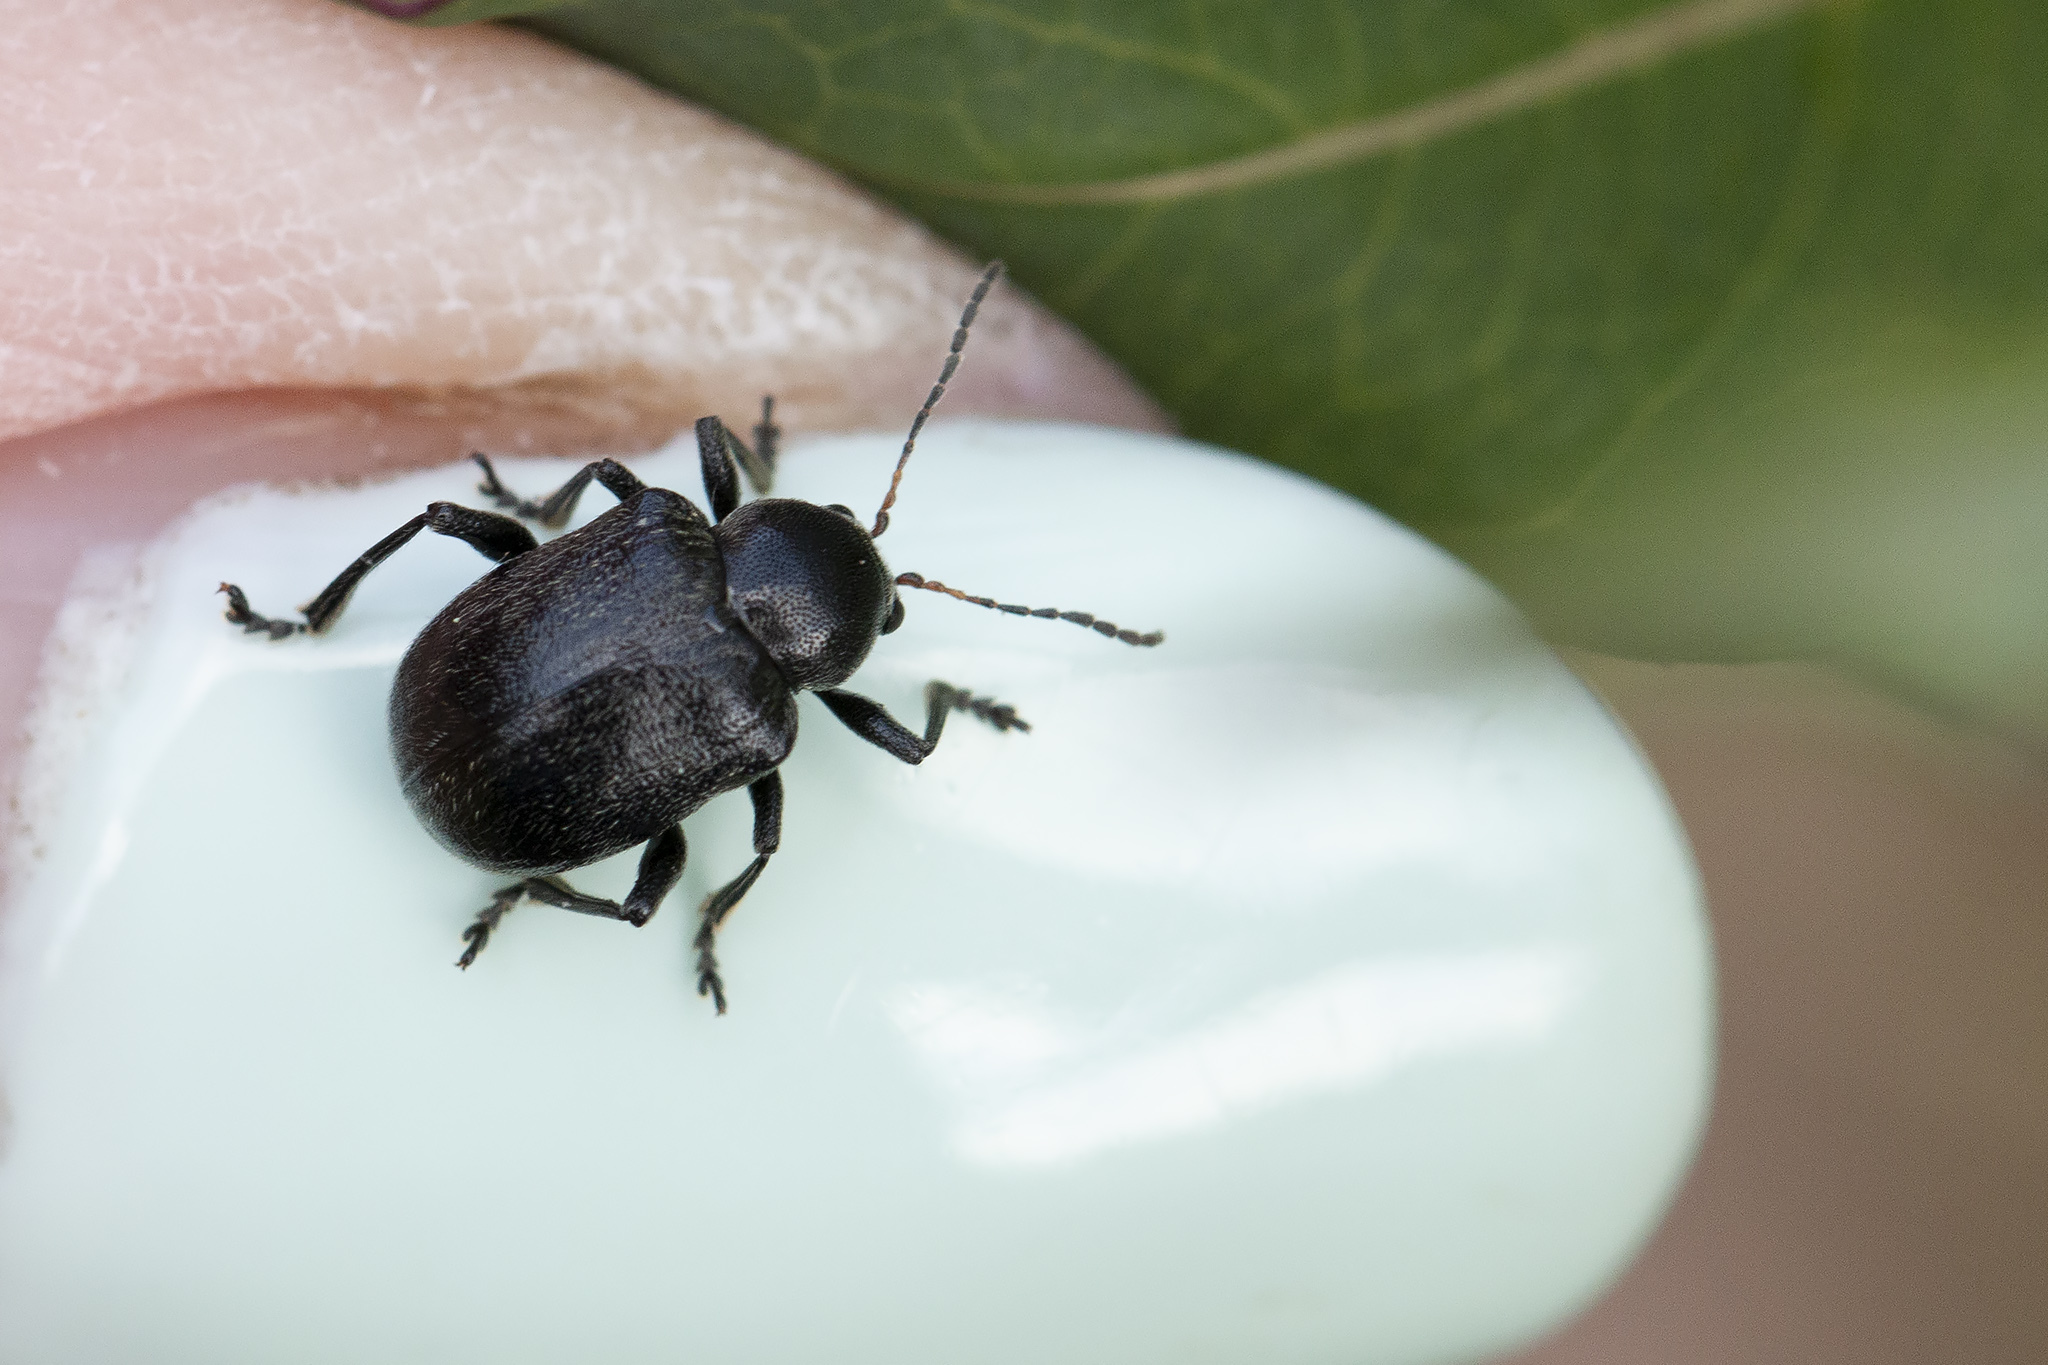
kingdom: Animalia
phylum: Arthropoda
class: Insecta
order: Coleoptera
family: Chrysomelidae
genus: Bromius
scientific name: Bromius obscurus
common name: Western grape rootworm
